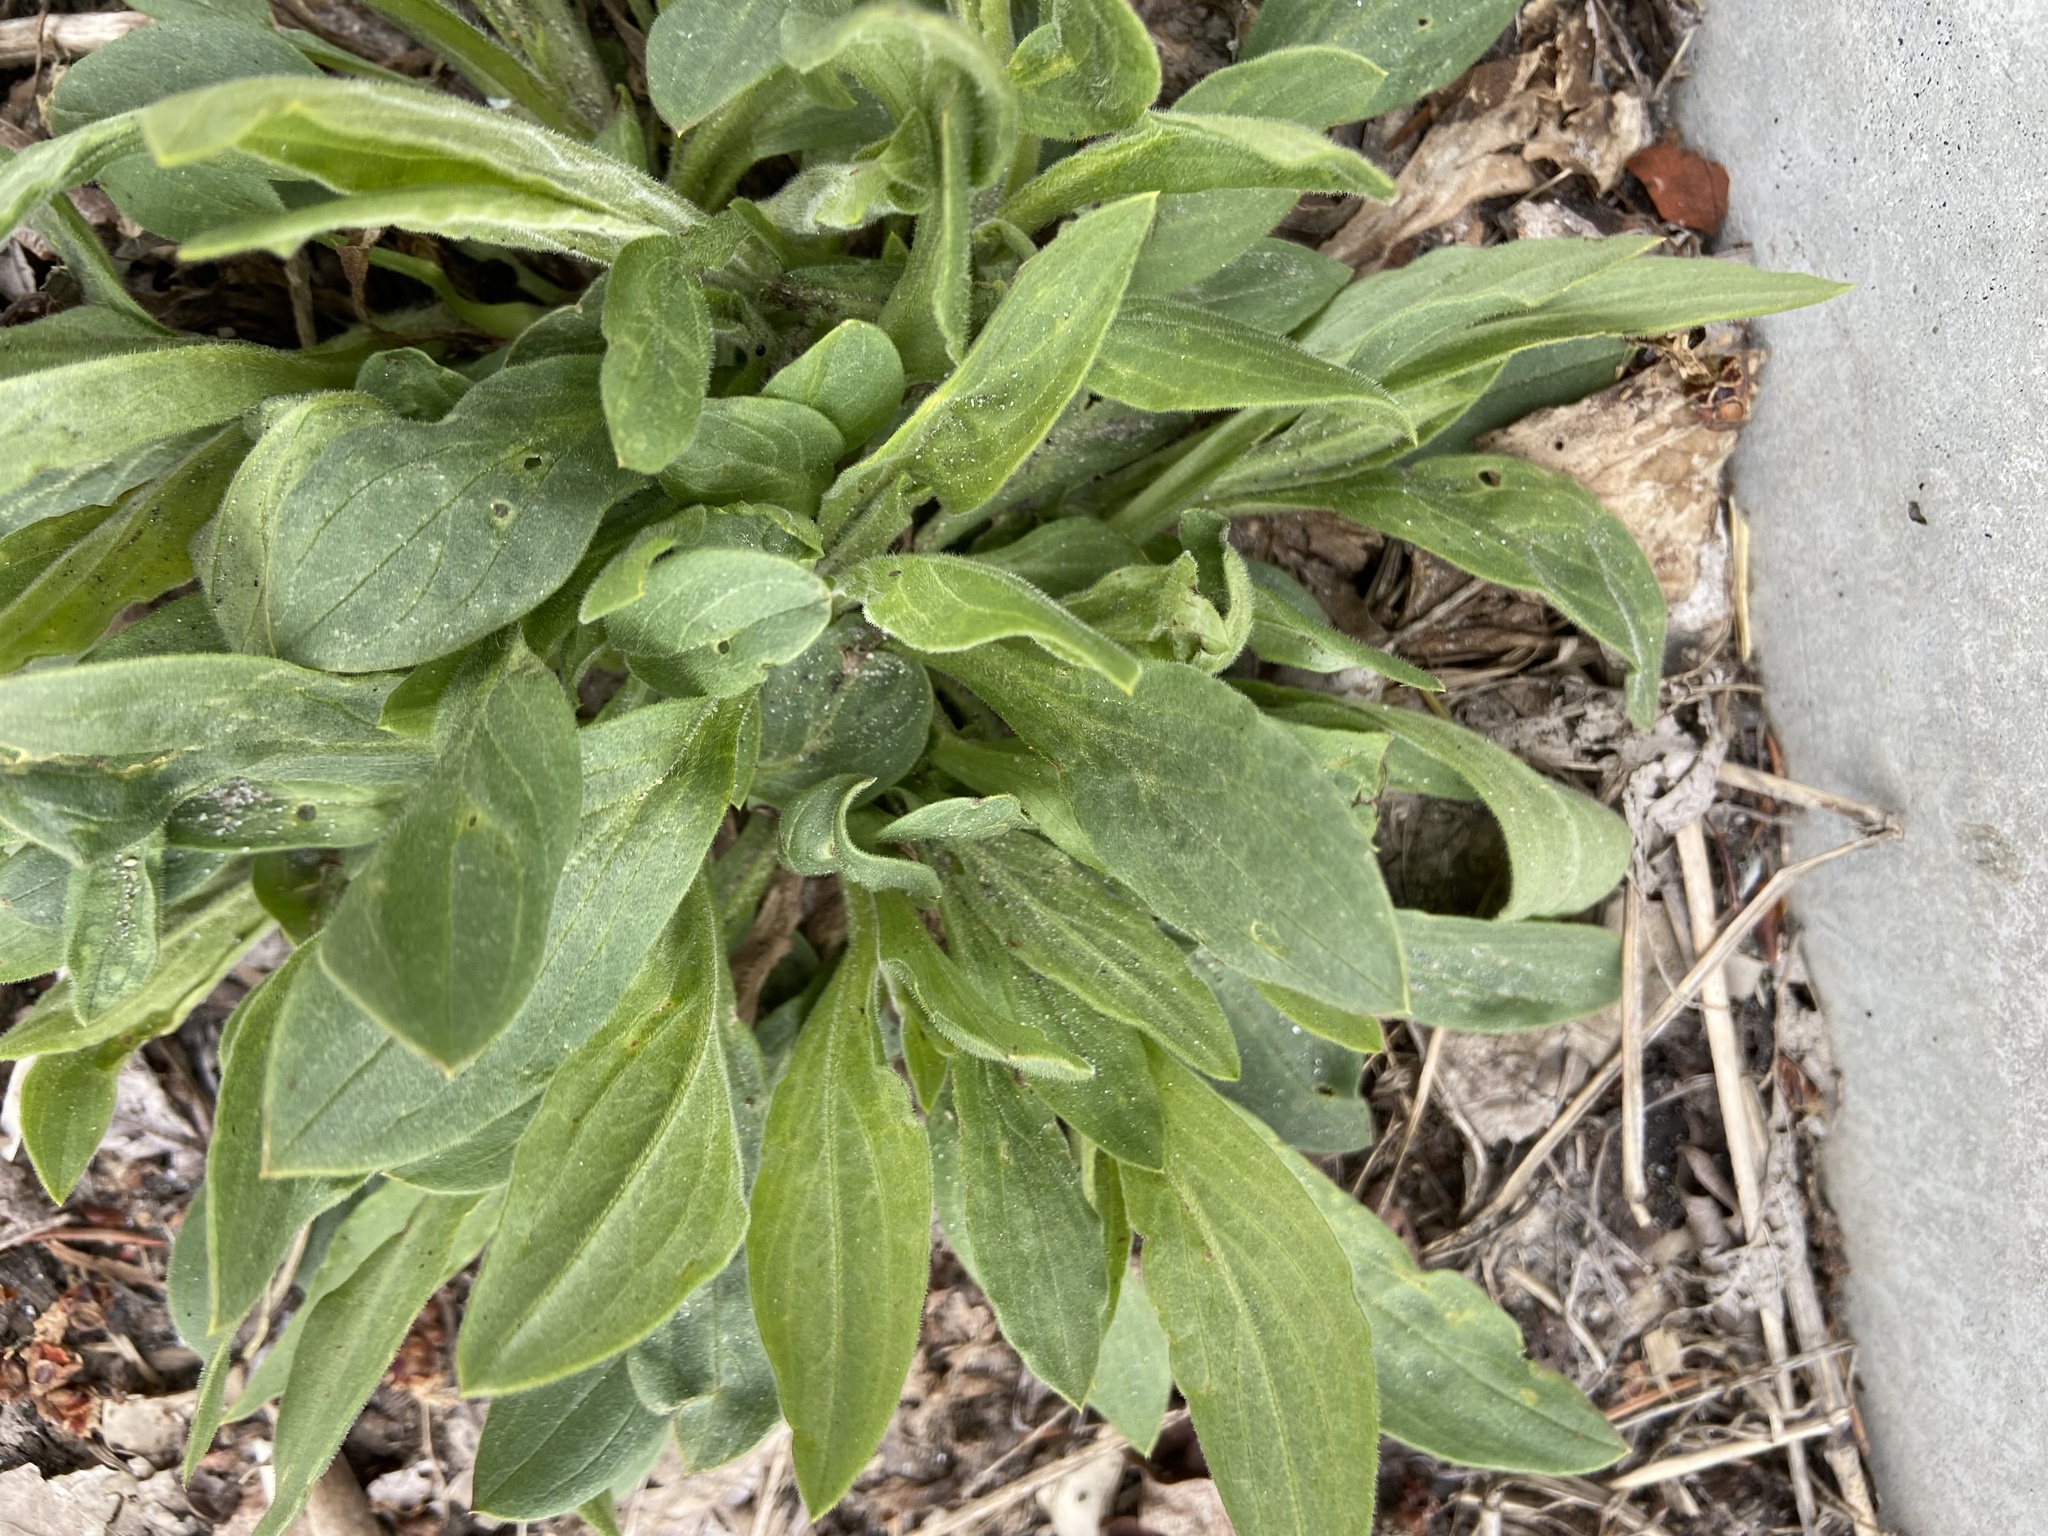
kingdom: Plantae
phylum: Tracheophyta
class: Magnoliopsida
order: Caryophyllales
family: Caryophyllaceae
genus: Silene
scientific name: Silene latifolia
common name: White campion
